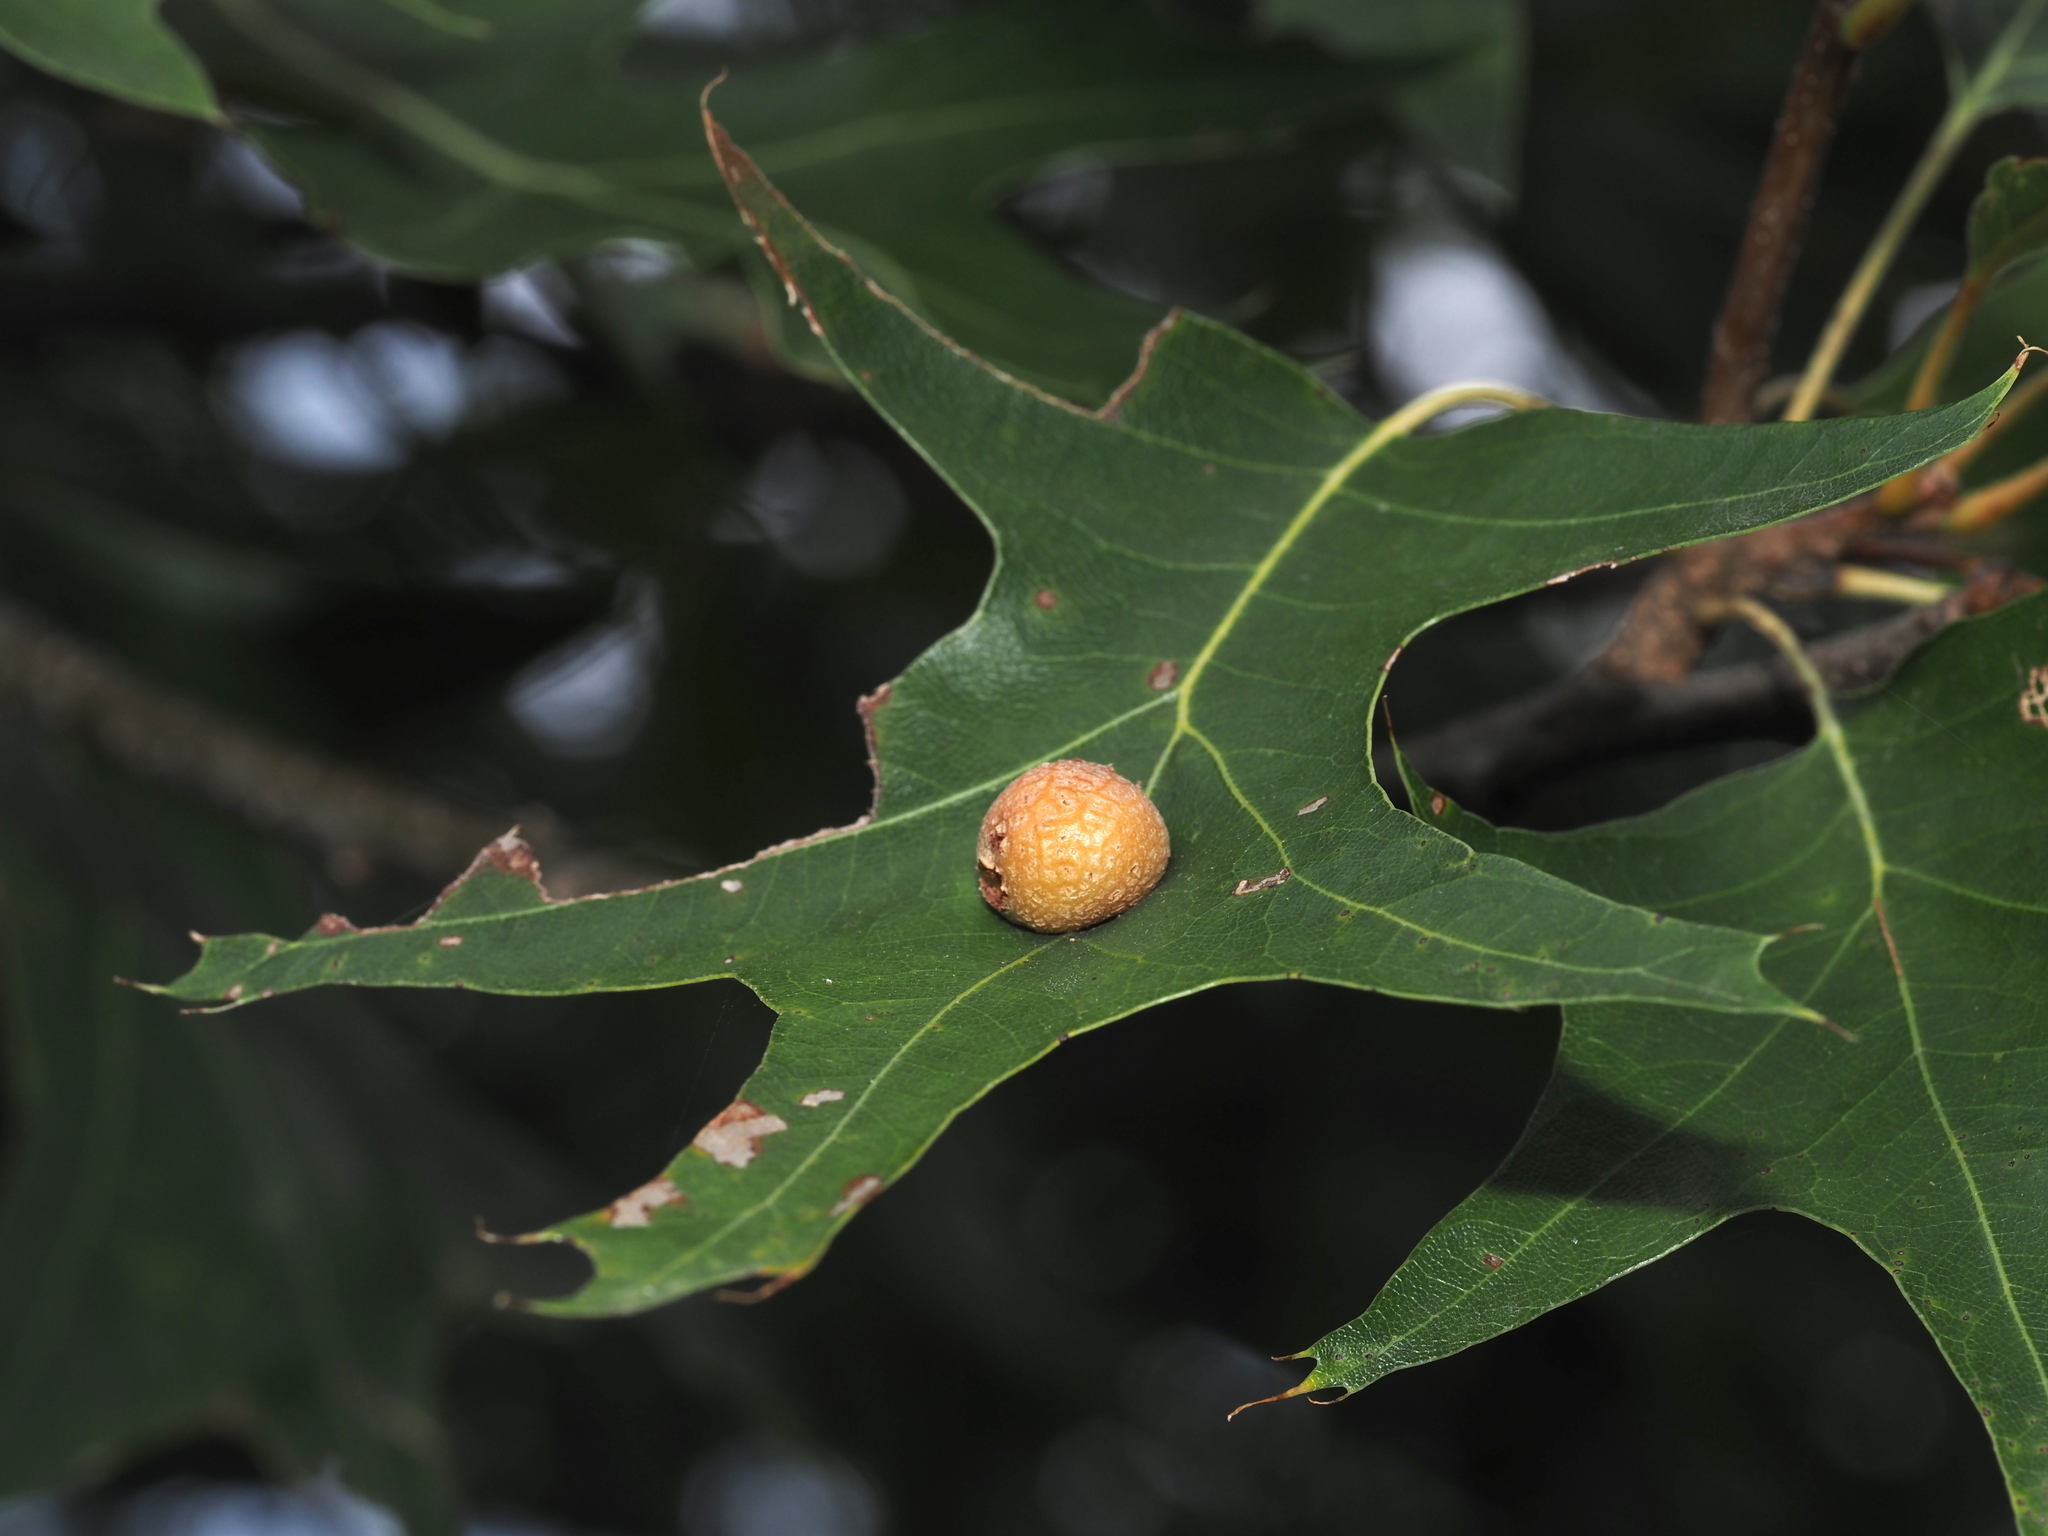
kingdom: Animalia
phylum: Arthropoda
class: Insecta
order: Diptera
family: Cecidomyiidae
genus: Polystepha
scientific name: Polystepha pilulae
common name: Oak leaf gall midge
